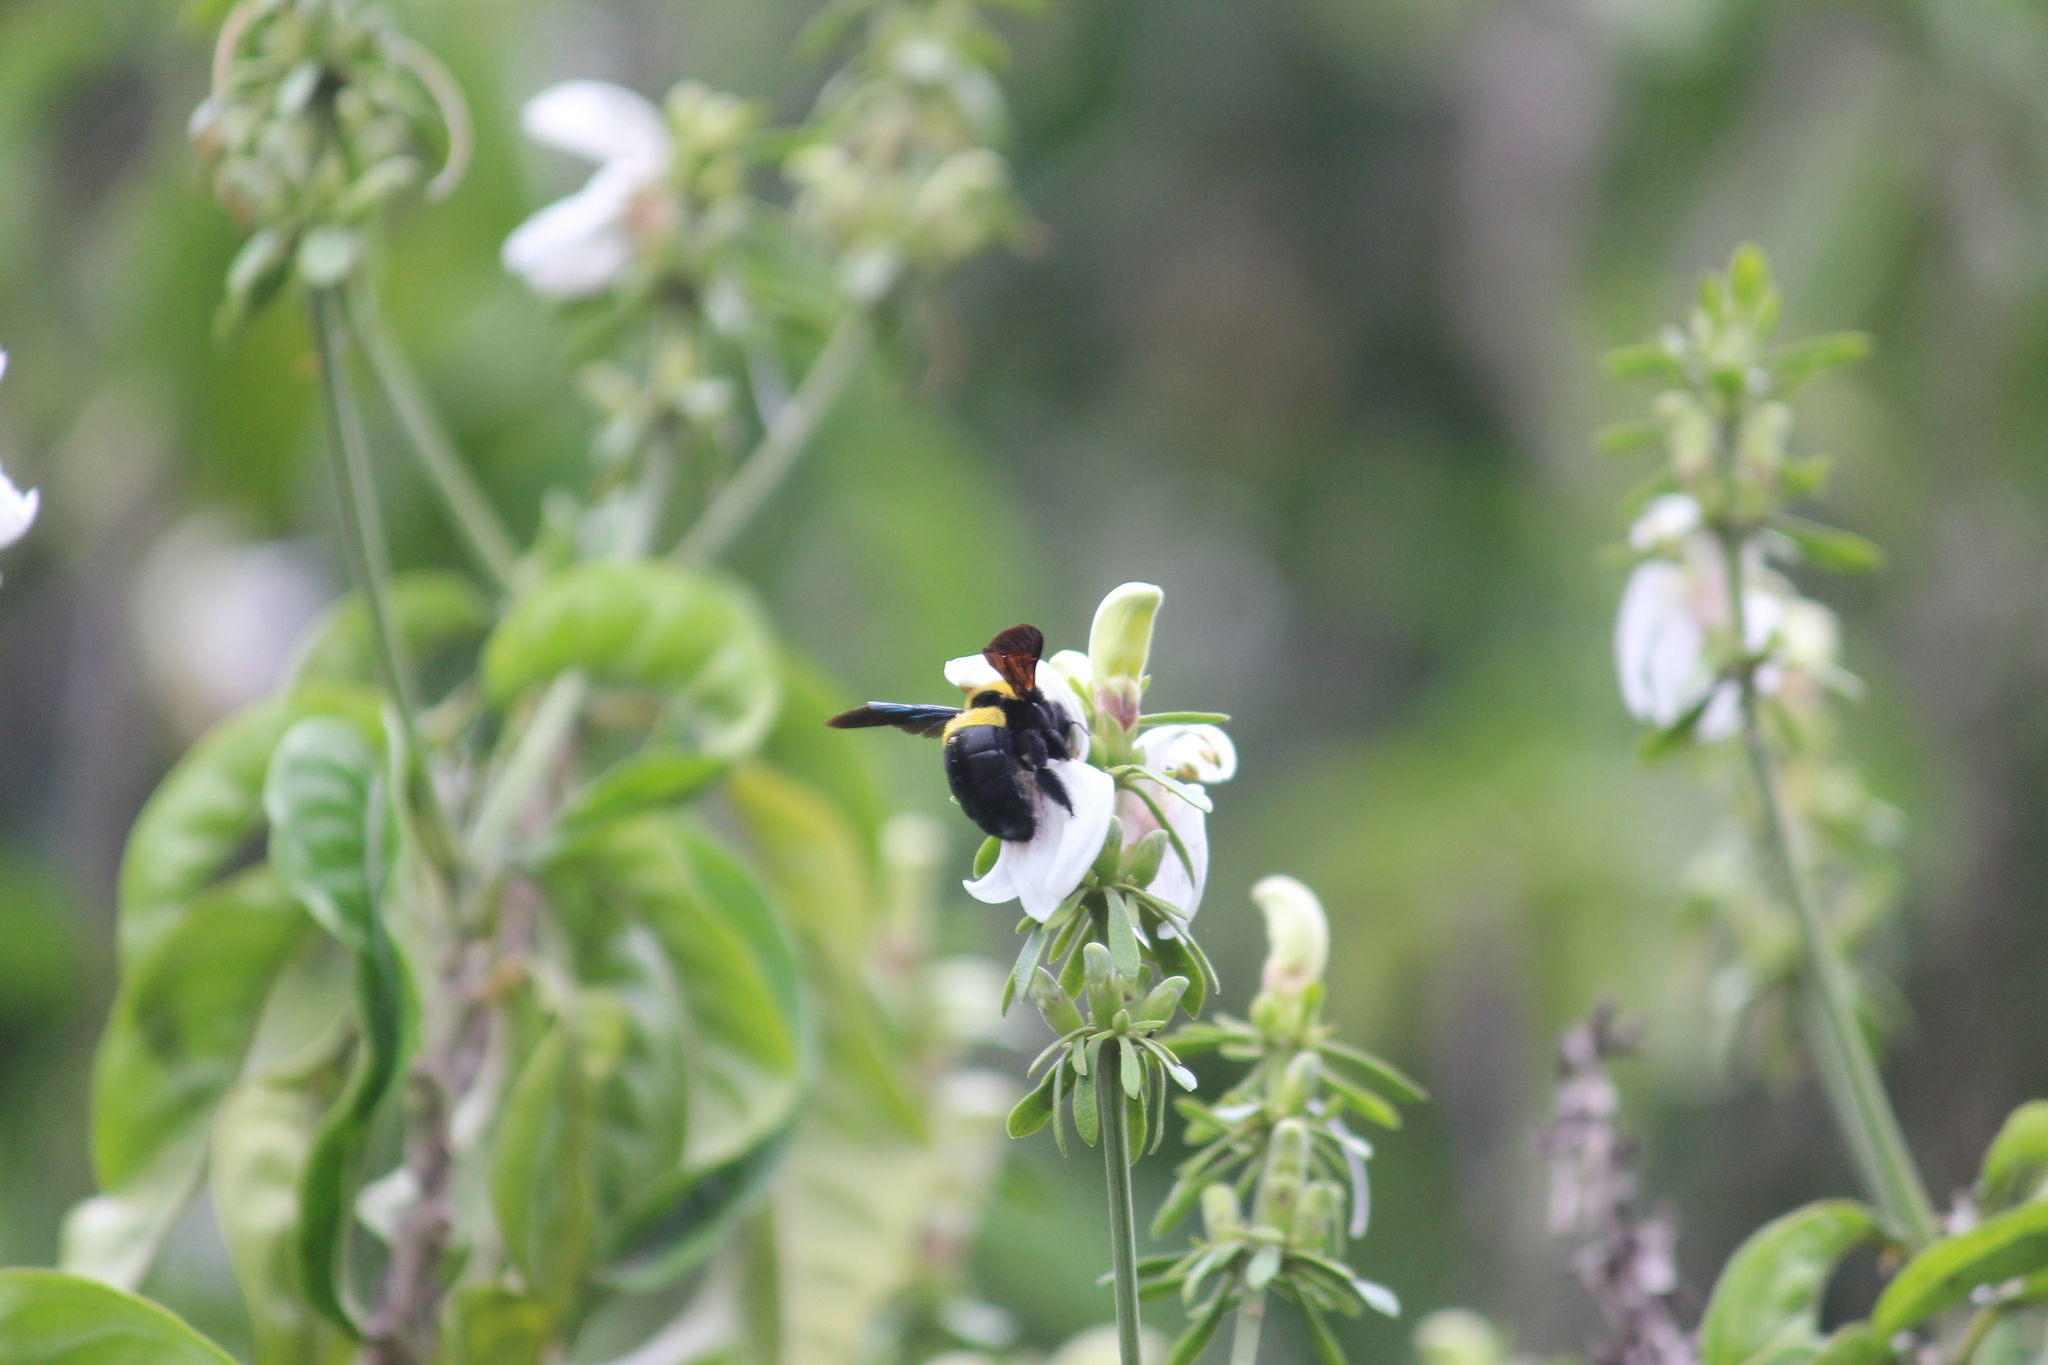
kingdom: Animalia
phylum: Arthropoda
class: Insecta
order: Hymenoptera
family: Apidae
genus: Xylocopa
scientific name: Xylocopa caffra
